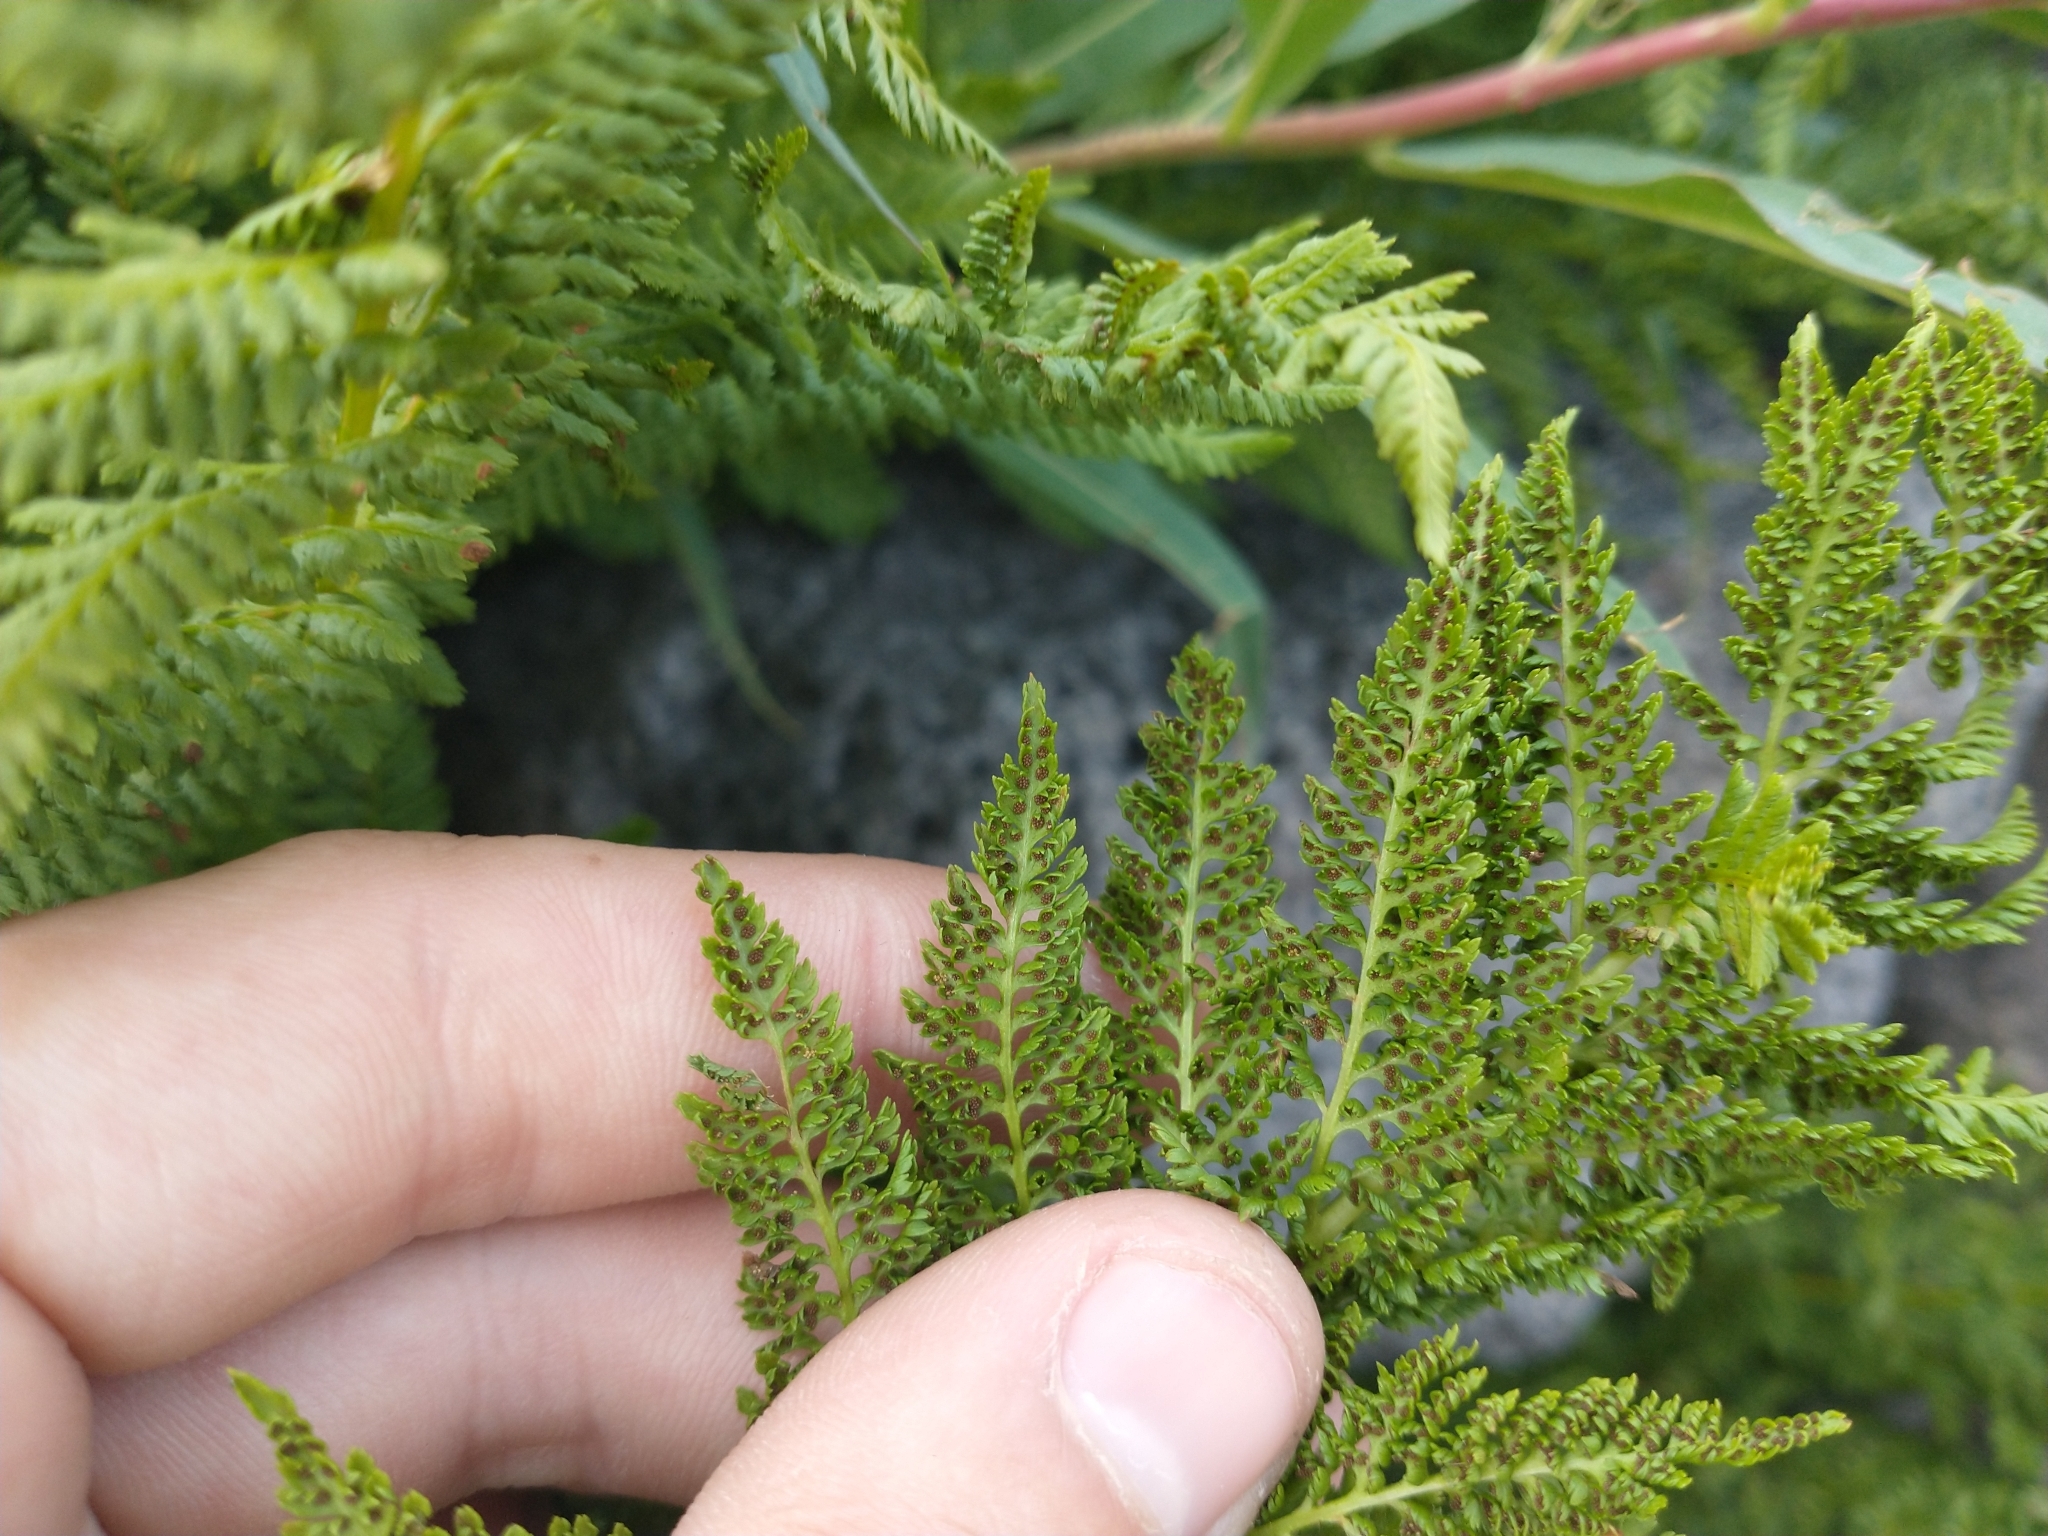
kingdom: Plantae
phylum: Tracheophyta
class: Polypodiopsida
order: Polypodiales
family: Athyriaceae
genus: Athyrium
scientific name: Athyrium americanum
